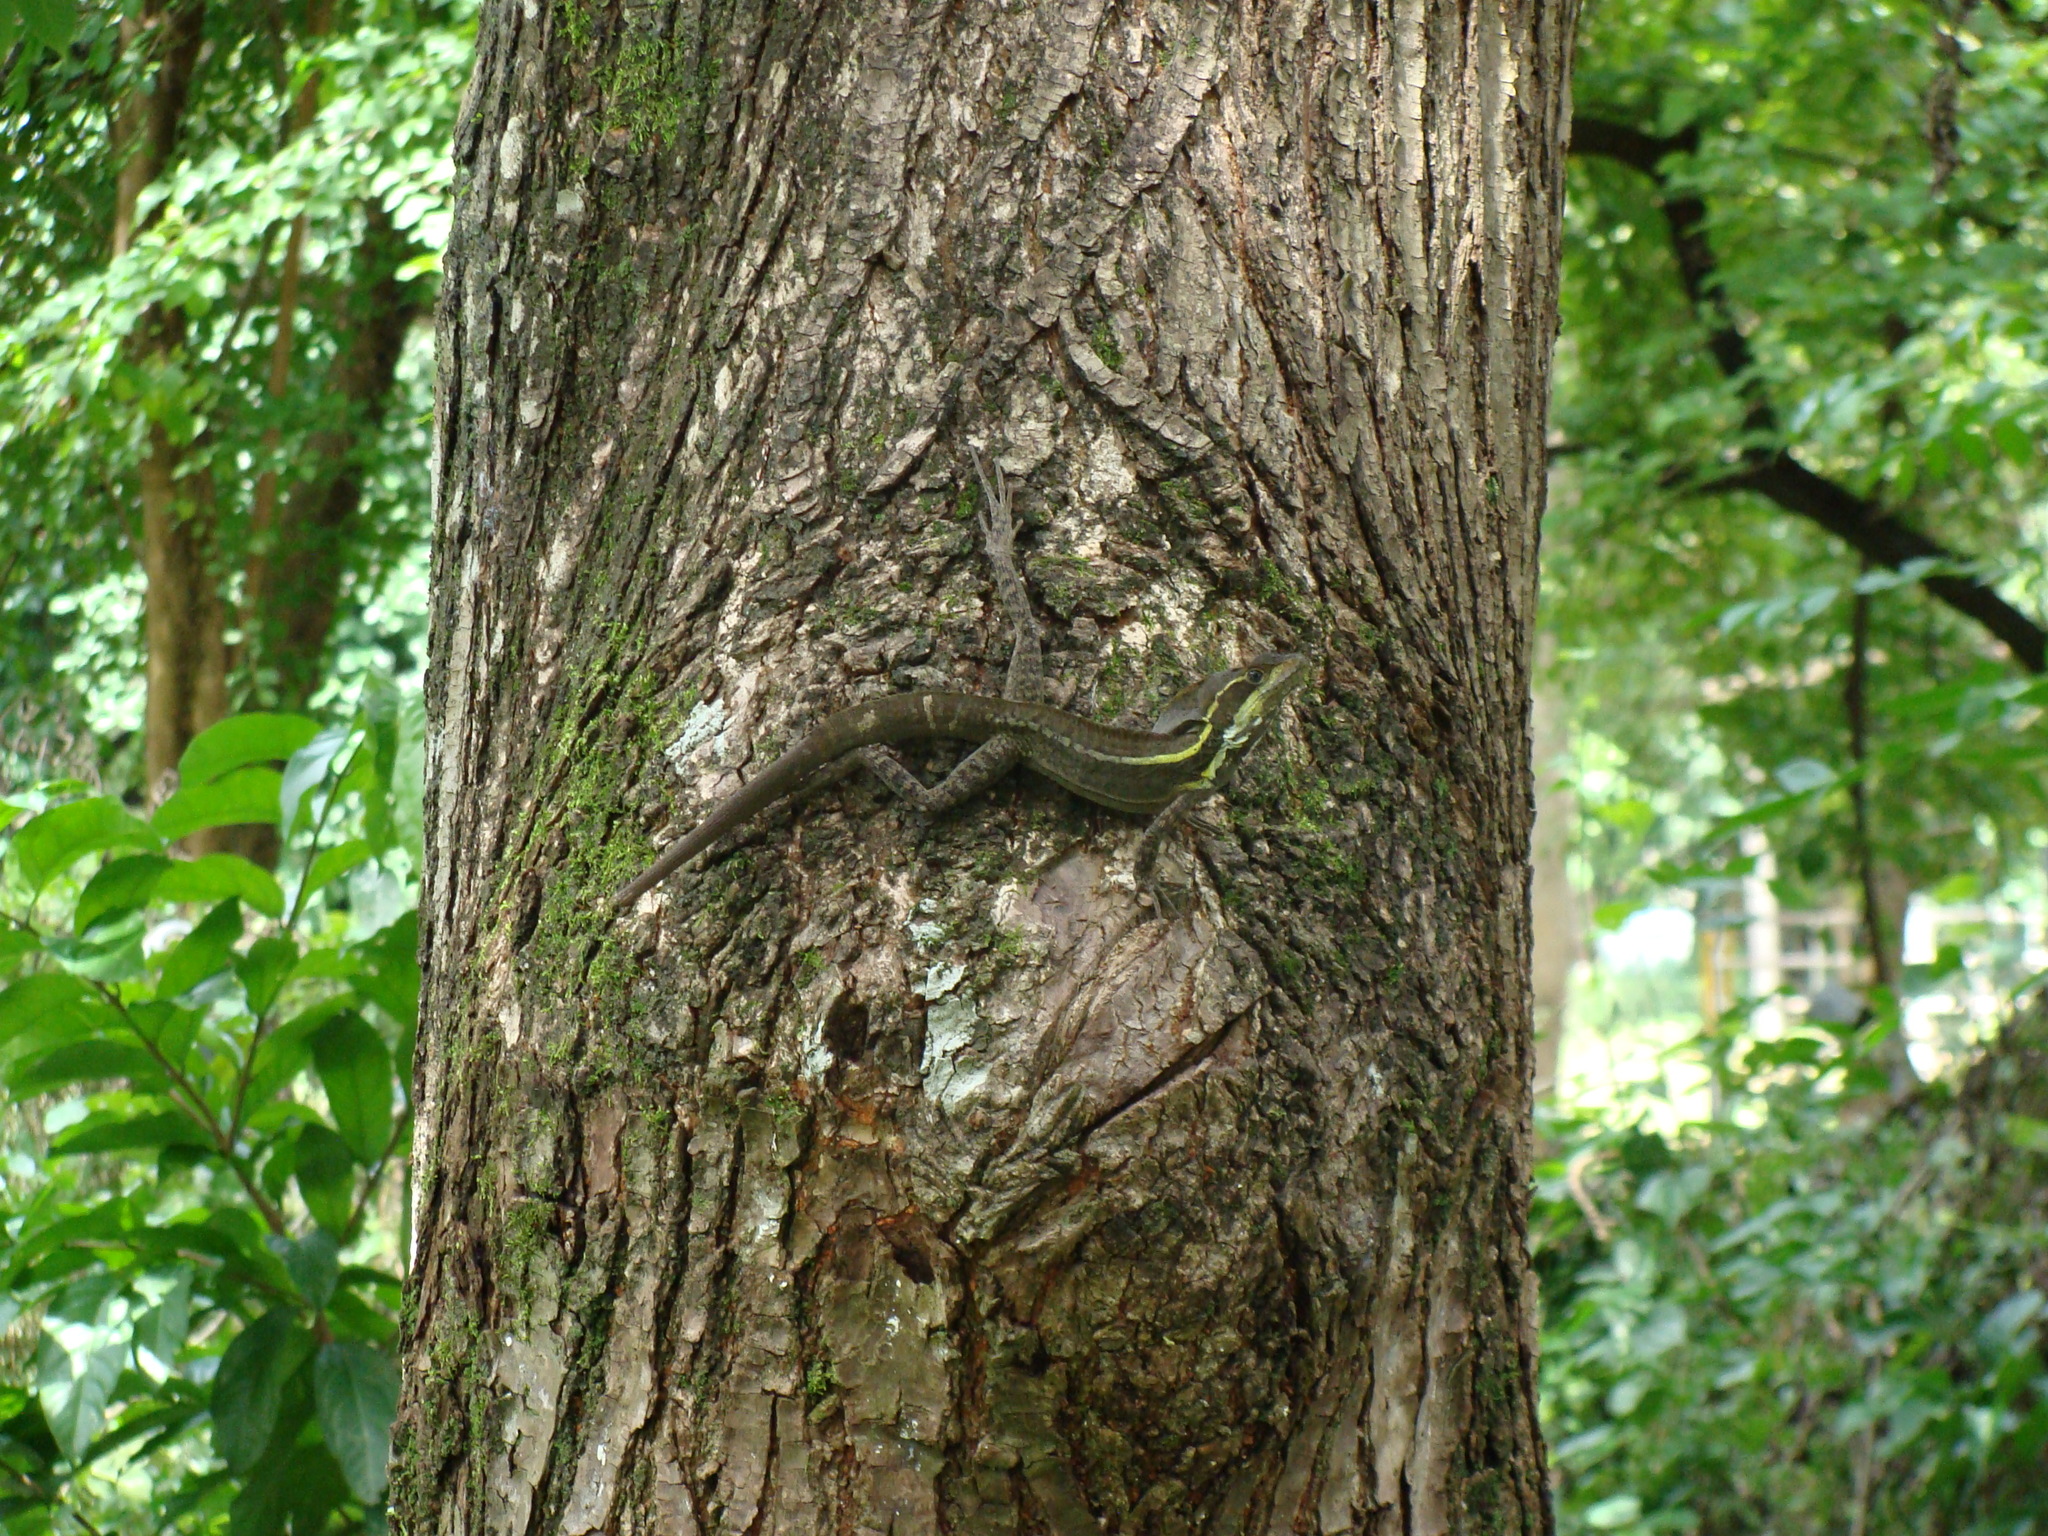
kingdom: Animalia
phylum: Chordata
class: Squamata
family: Corytophanidae
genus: Basiliscus
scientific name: Basiliscus vittatus
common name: Brown basilisk
